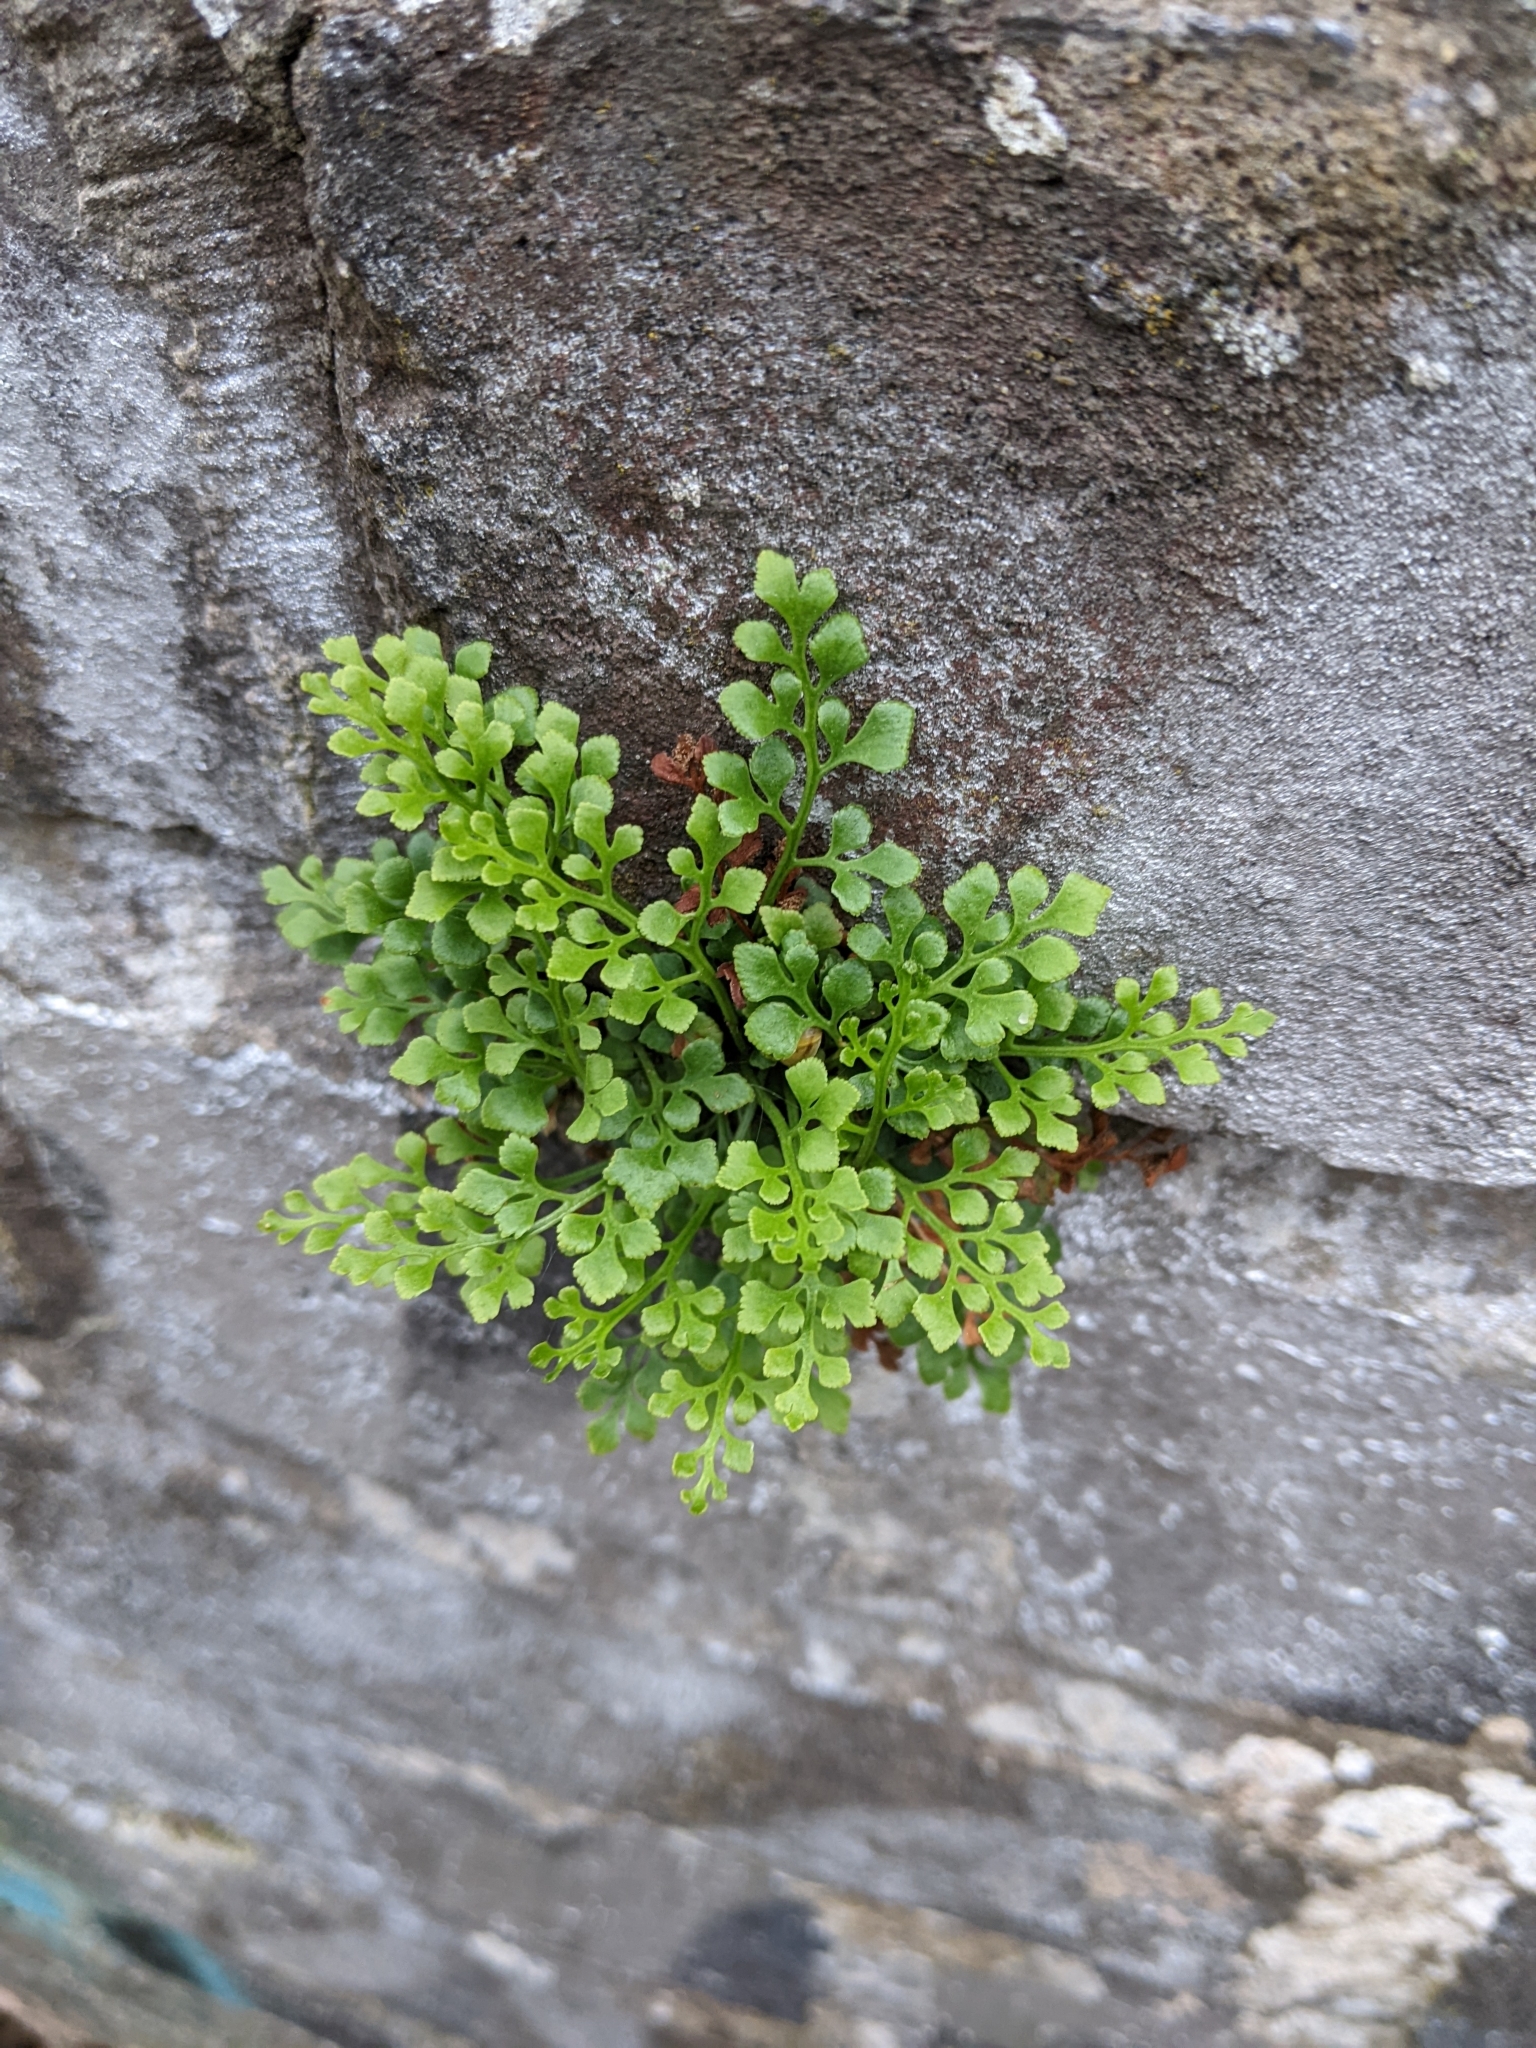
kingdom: Plantae
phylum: Tracheophyta
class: Polypodiopsida
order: Polypodiales
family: Aspleniaceae
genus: Asplenium
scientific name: Asplenium ruta-muraria
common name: Wall-rue
